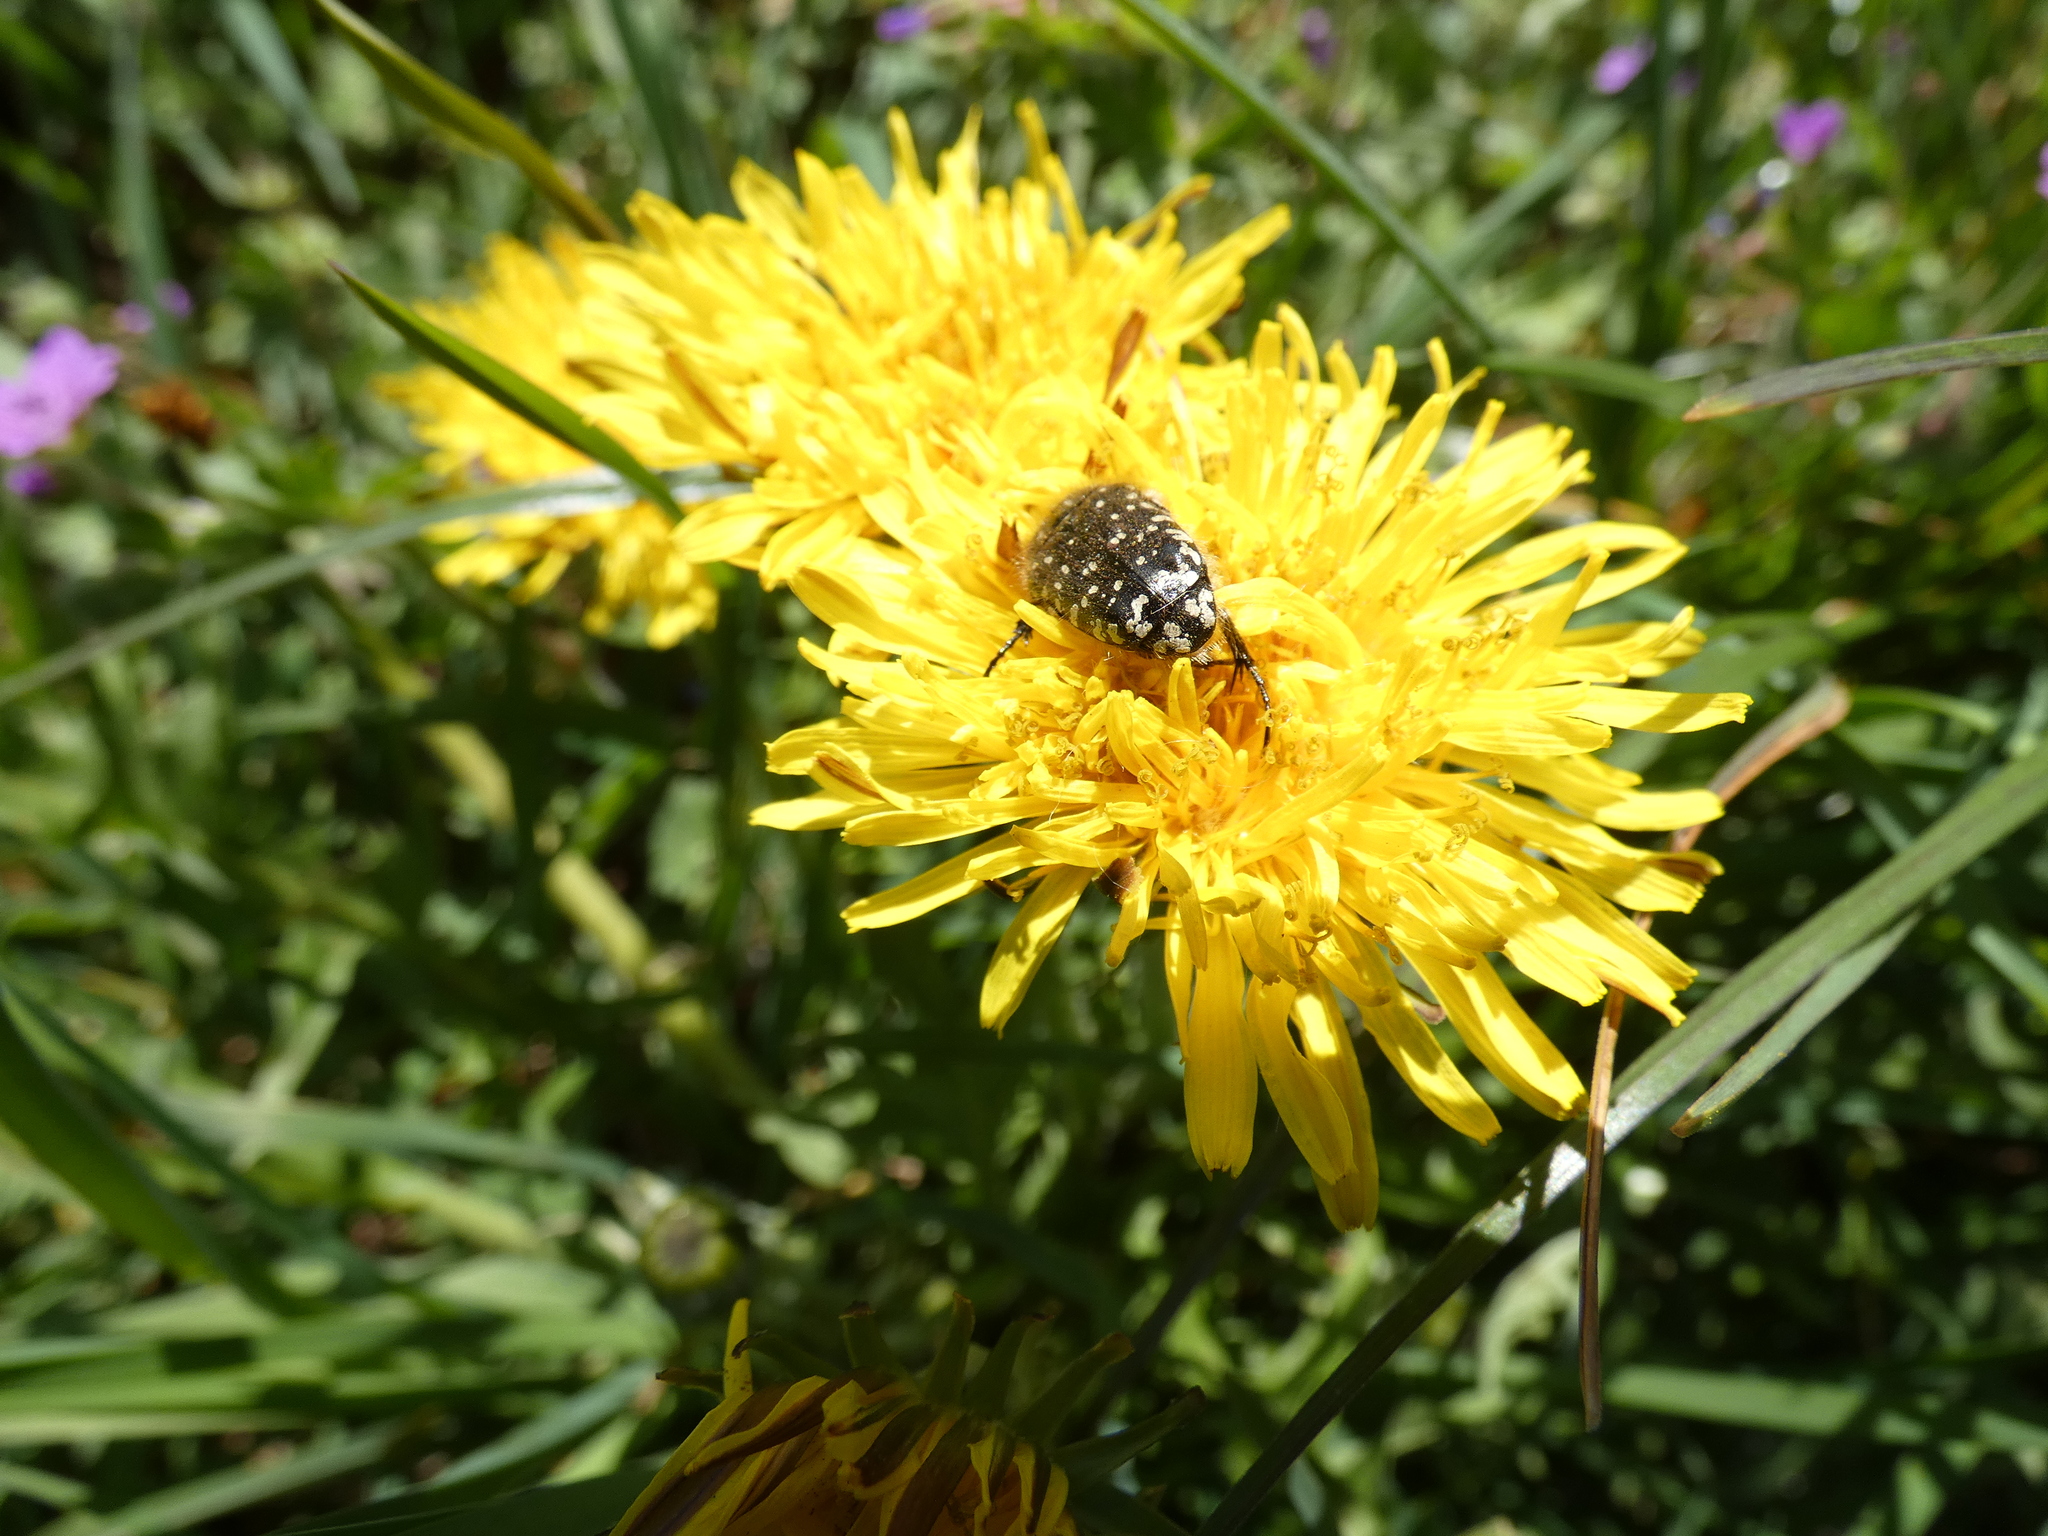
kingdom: Animalia
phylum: Arthropoda
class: Insecta
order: Coleoptera
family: Scarabaeidae
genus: Oxythyrea
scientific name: Oxythyrea funesta
